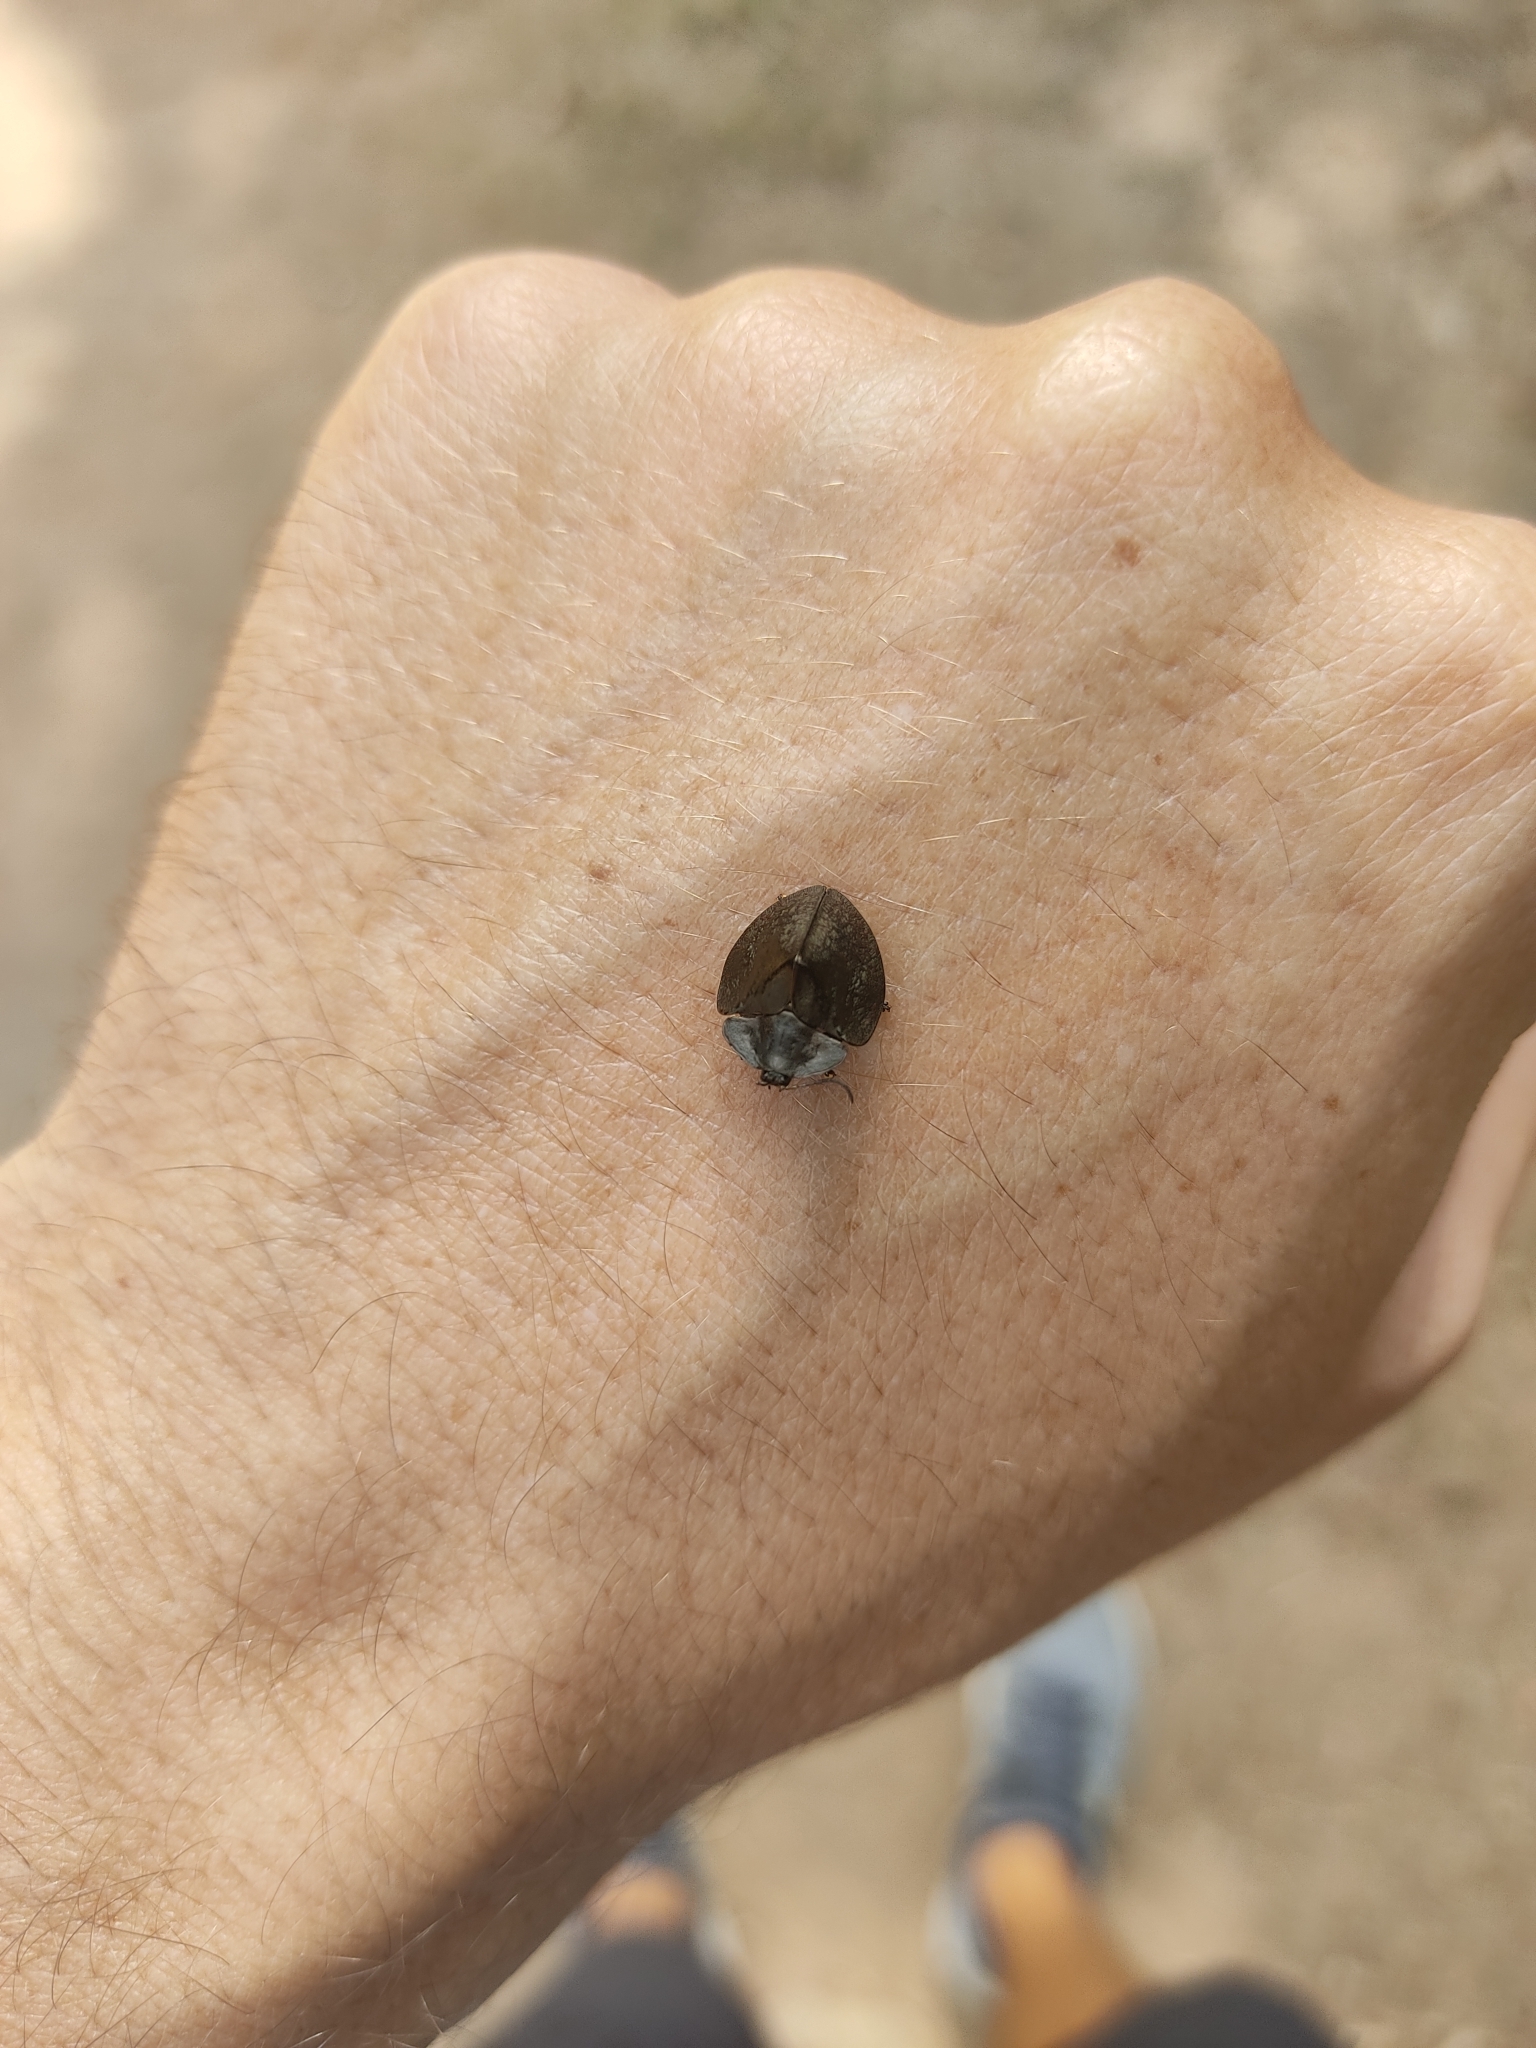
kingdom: Animalia
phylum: Arthropoda
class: Insecta
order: Coleoptera
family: Chrysomelidae
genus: Stolas
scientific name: Stolas antiqua
